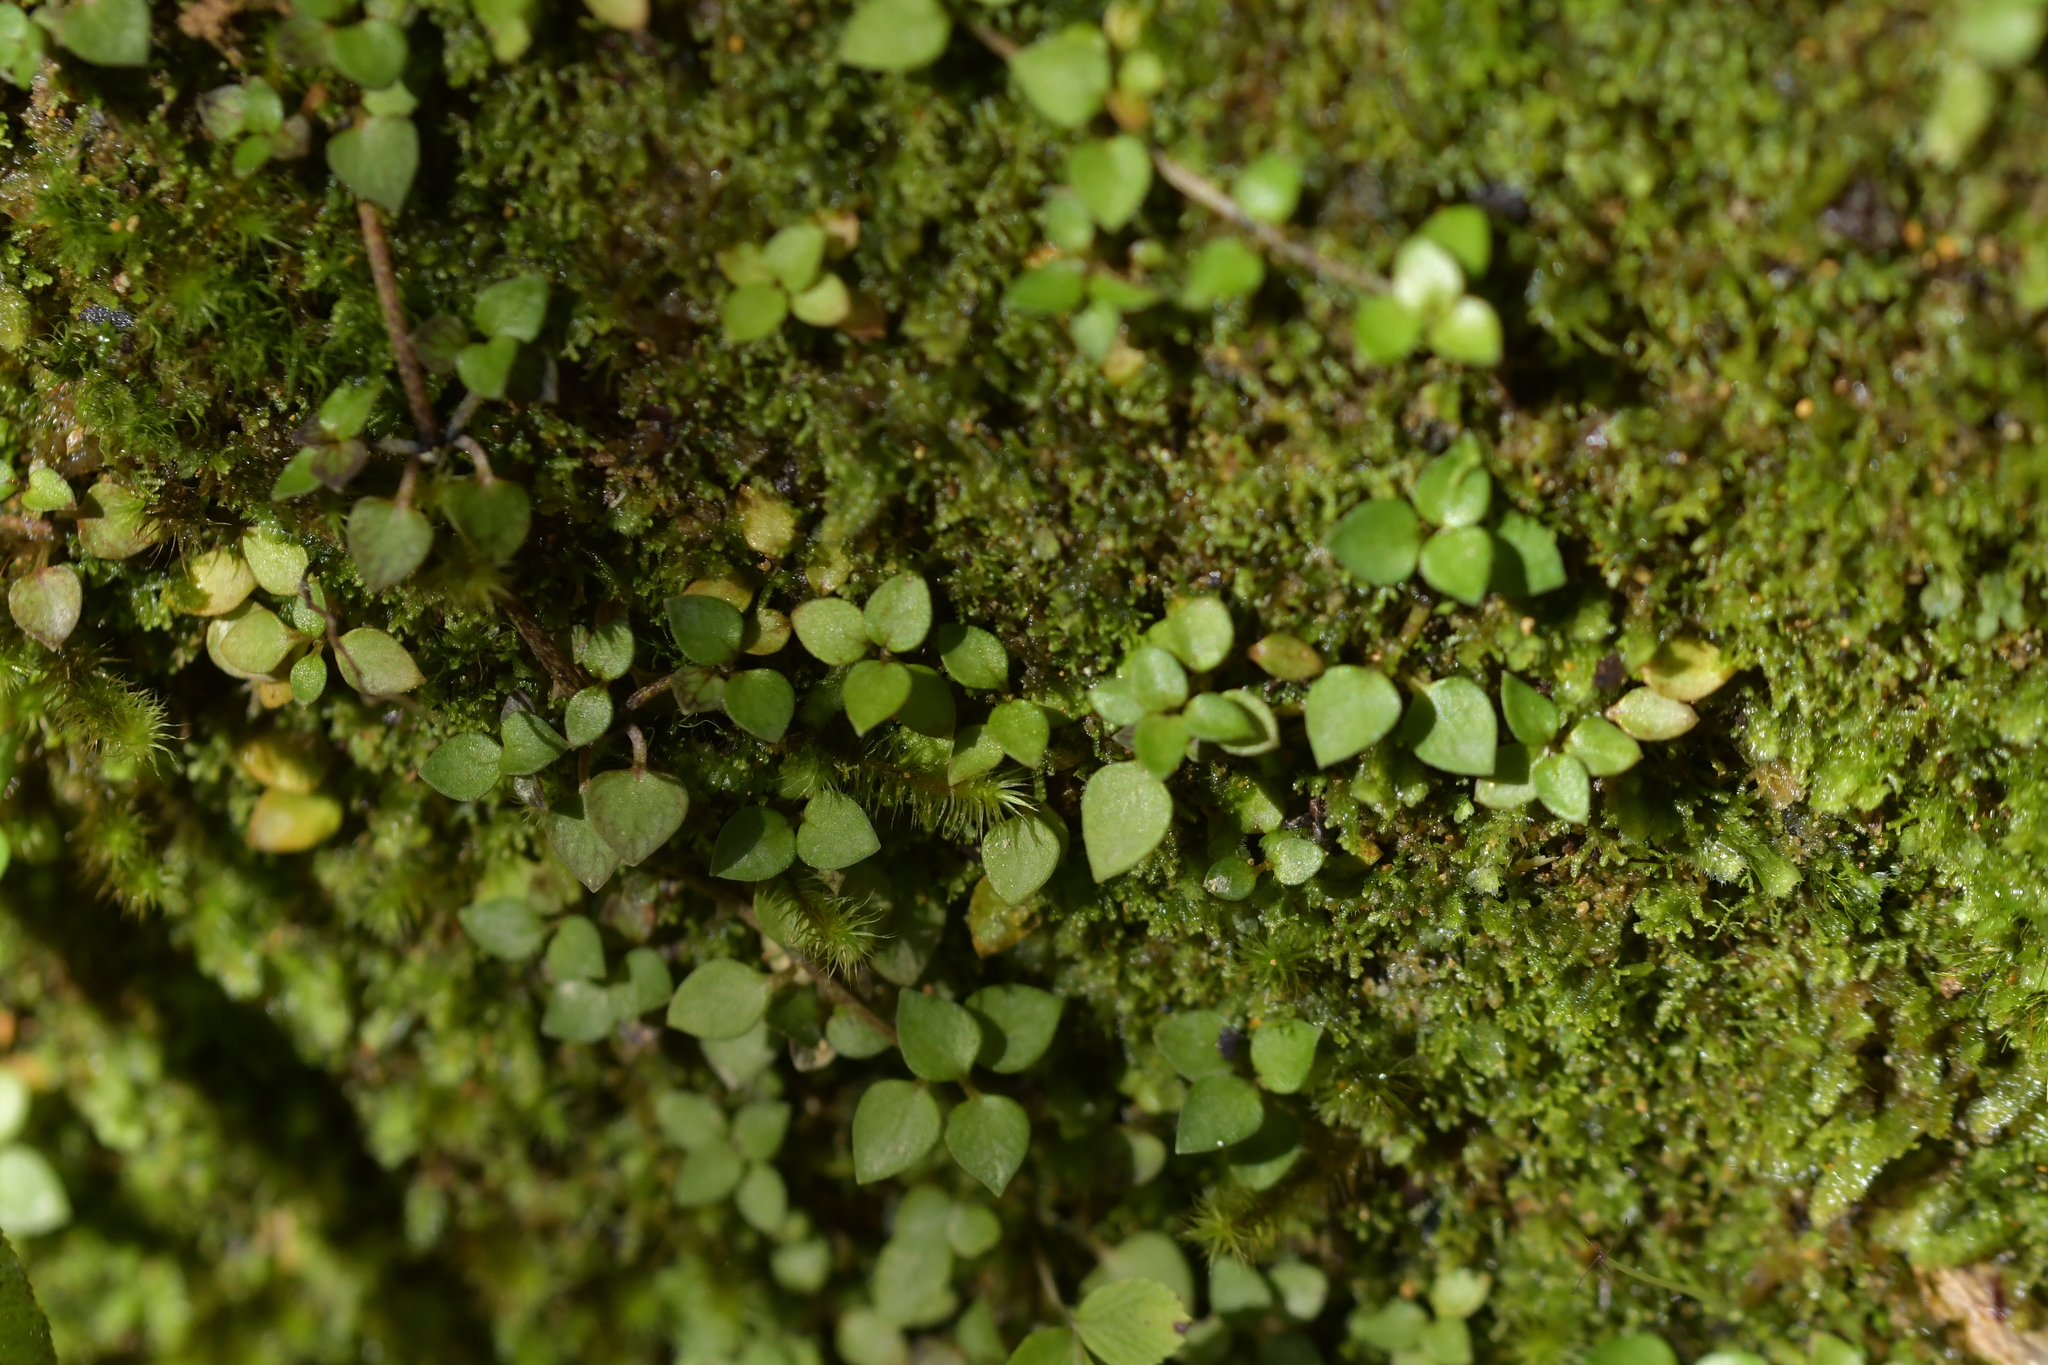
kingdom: Plantae
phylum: Tracheophyta
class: Magnoliopsida
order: Gentianales
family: Rubiaceae
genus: Nertera
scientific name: Nertera granadensis
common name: Beadplant
